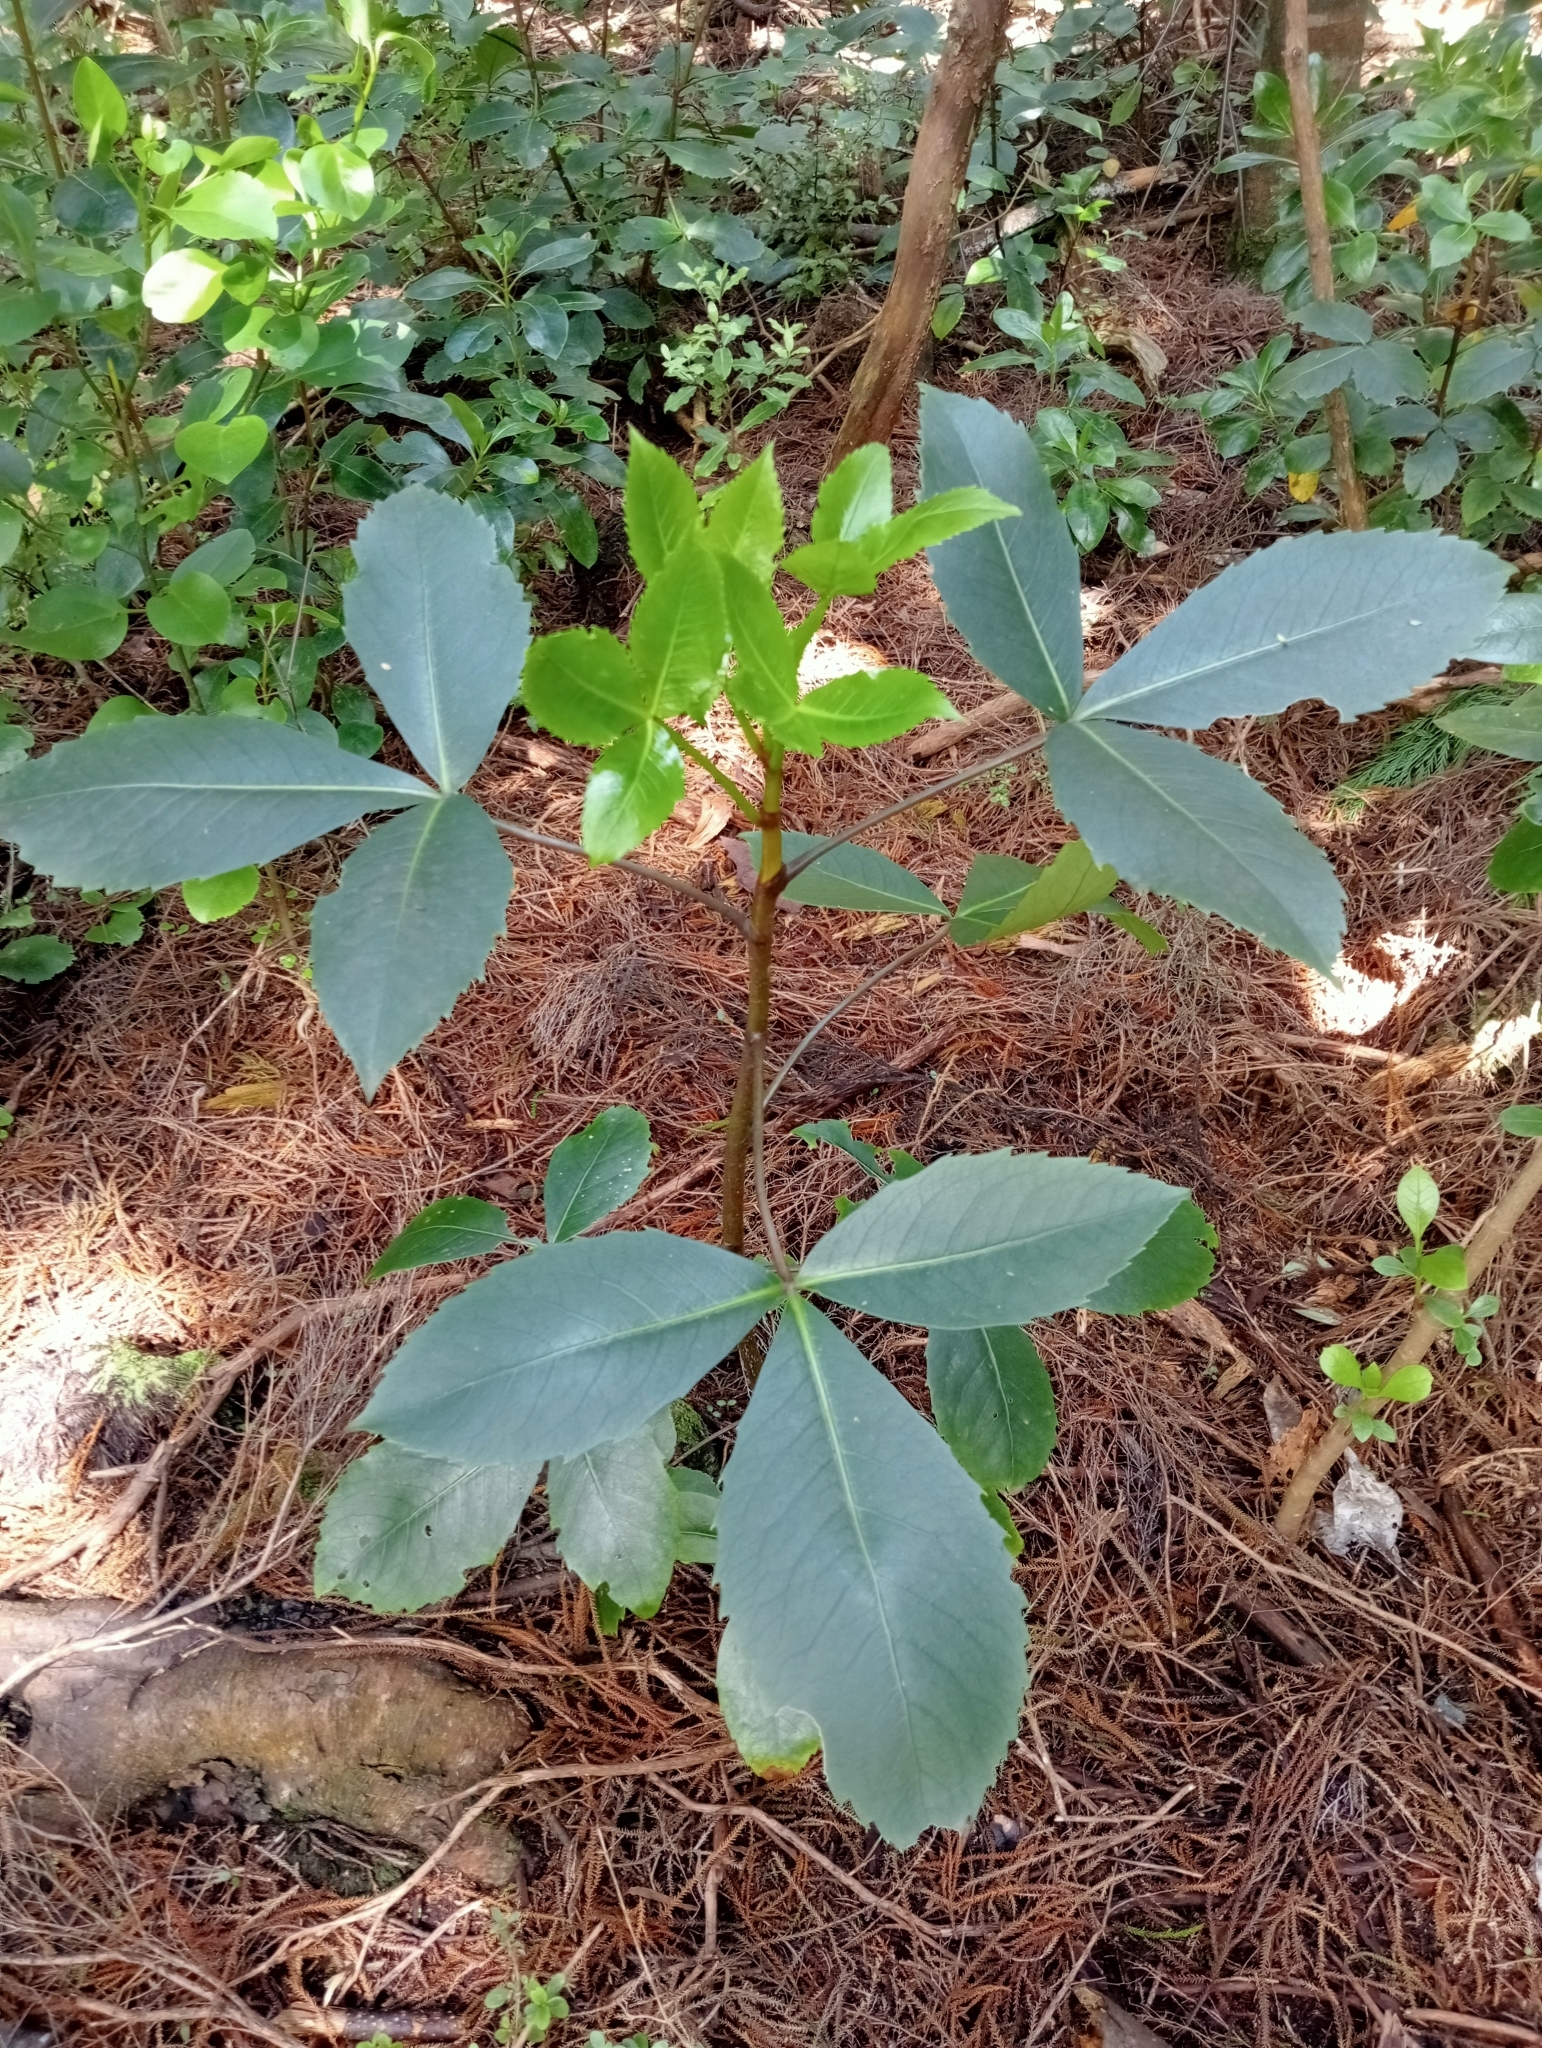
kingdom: Plantae
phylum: Tracheophyta
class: Magnoliopsida
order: Apiales
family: Araliaceae
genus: Neopanax
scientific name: Neopanax colensoi
